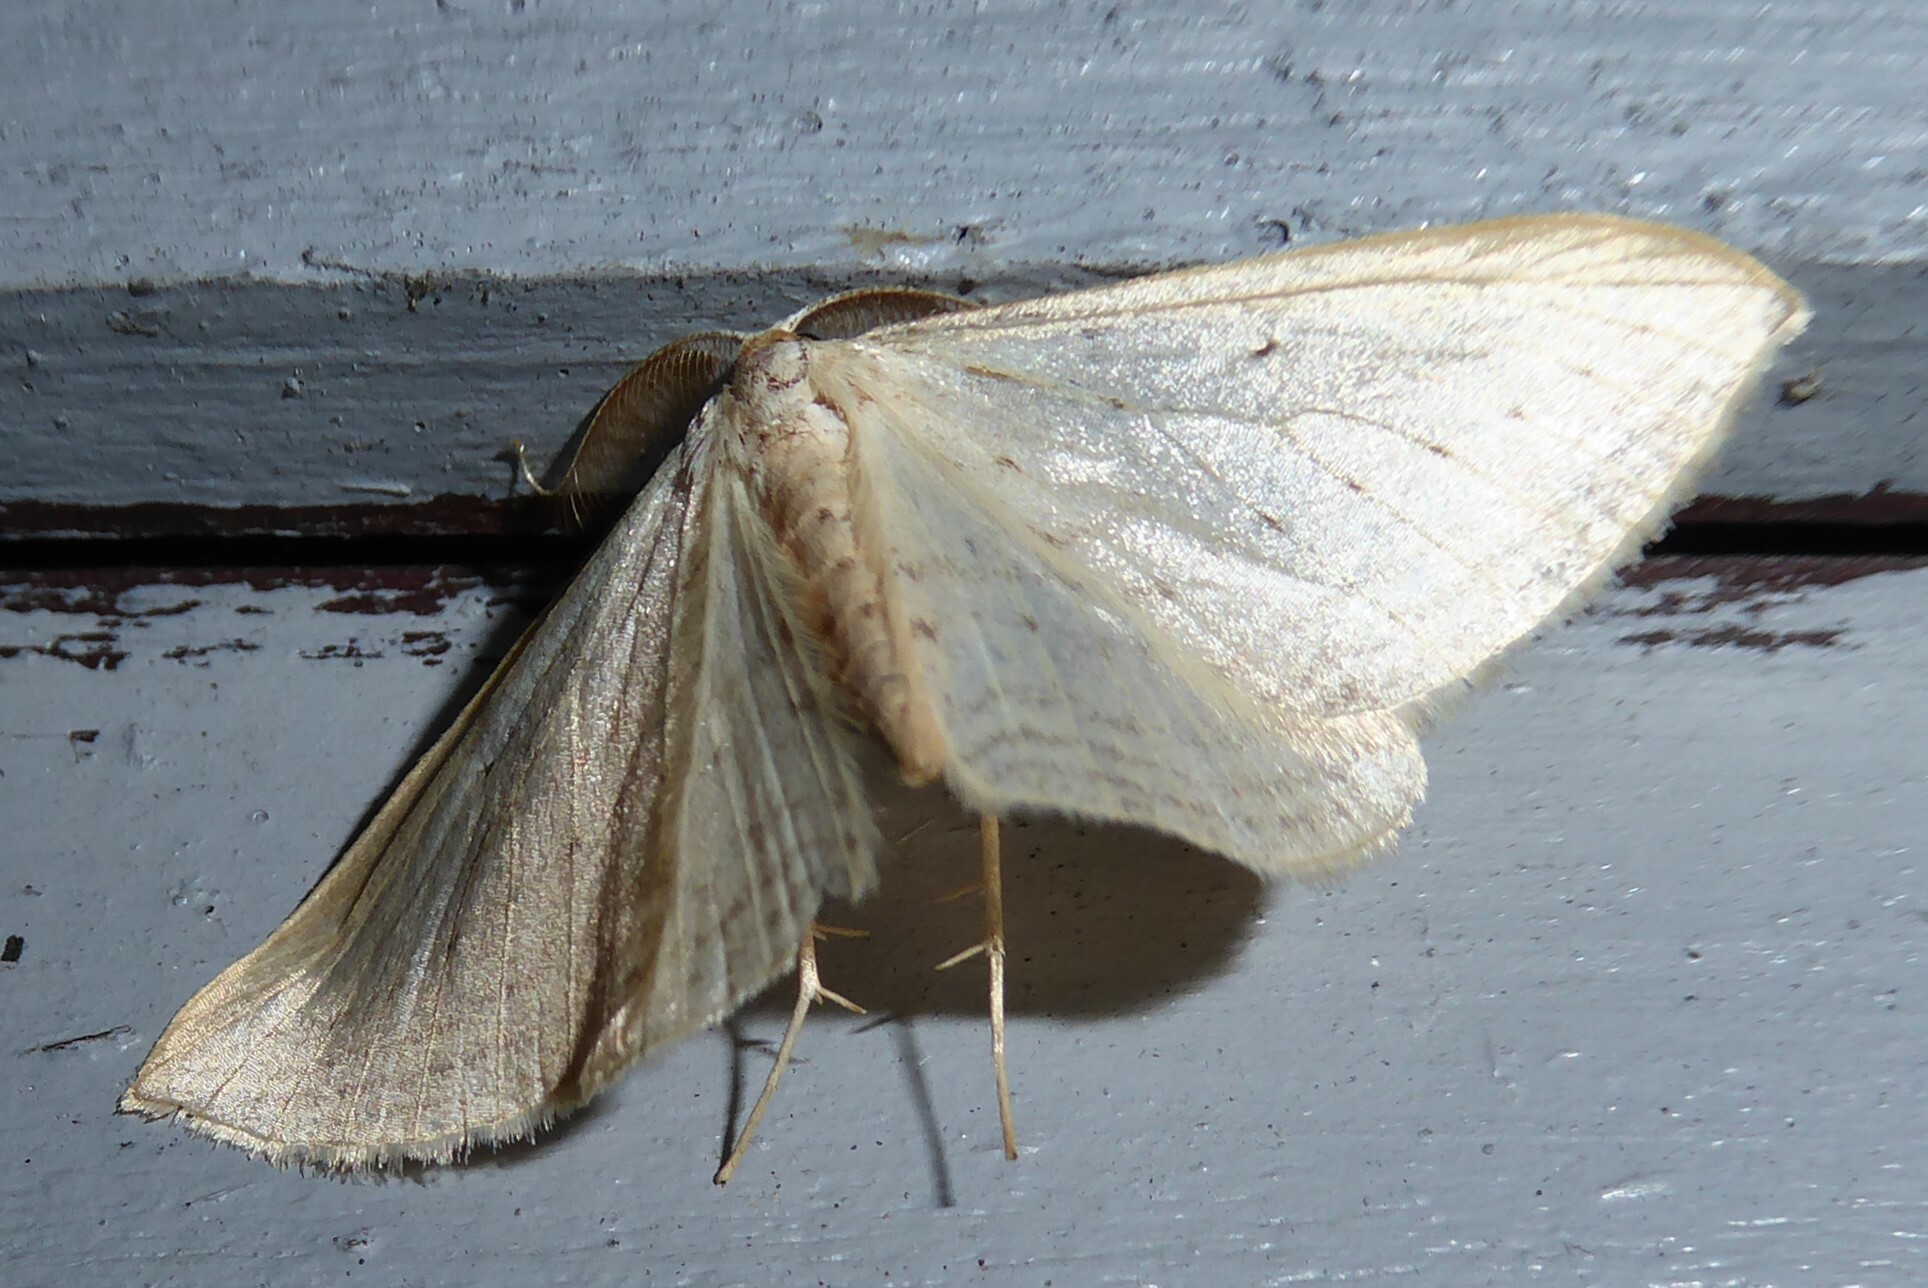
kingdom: Animalia
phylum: Arthropoda
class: Insecta
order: Lepidoptera
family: Geometridae
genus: Orthoclydon
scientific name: Orthoclydon praefectata
